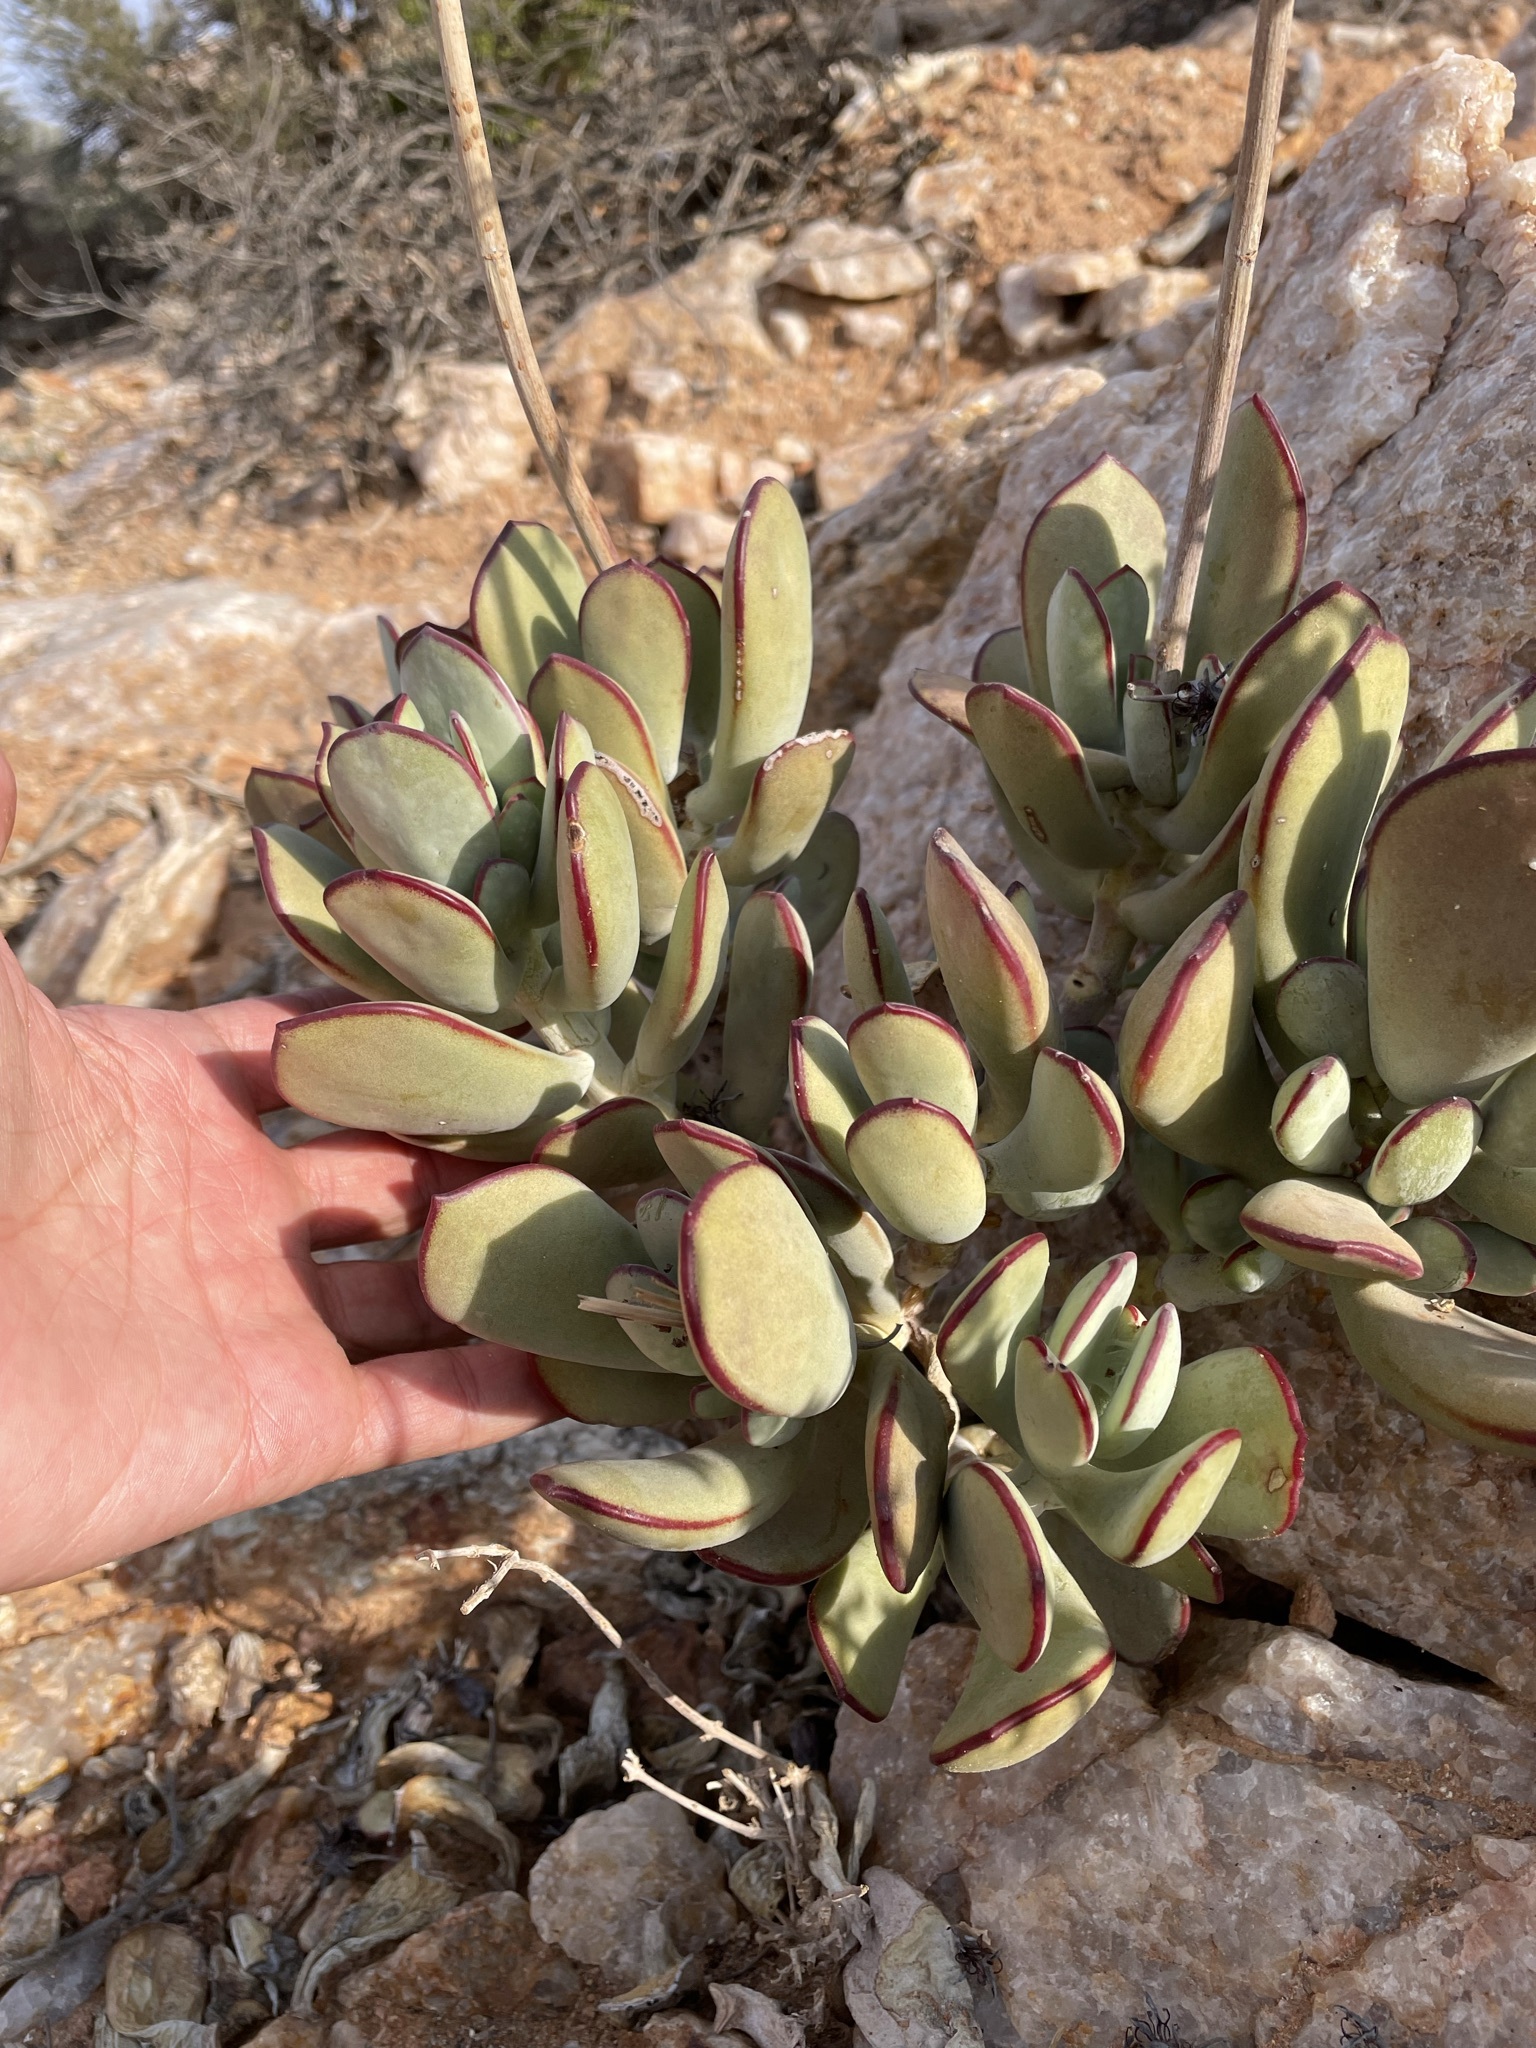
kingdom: Plantae
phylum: Tracheophyta
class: Magnoliopsida
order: Saxifragales
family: Crassulaceae
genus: Cotyledon
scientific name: Cotyledon orbiculata
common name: Pig's ear
